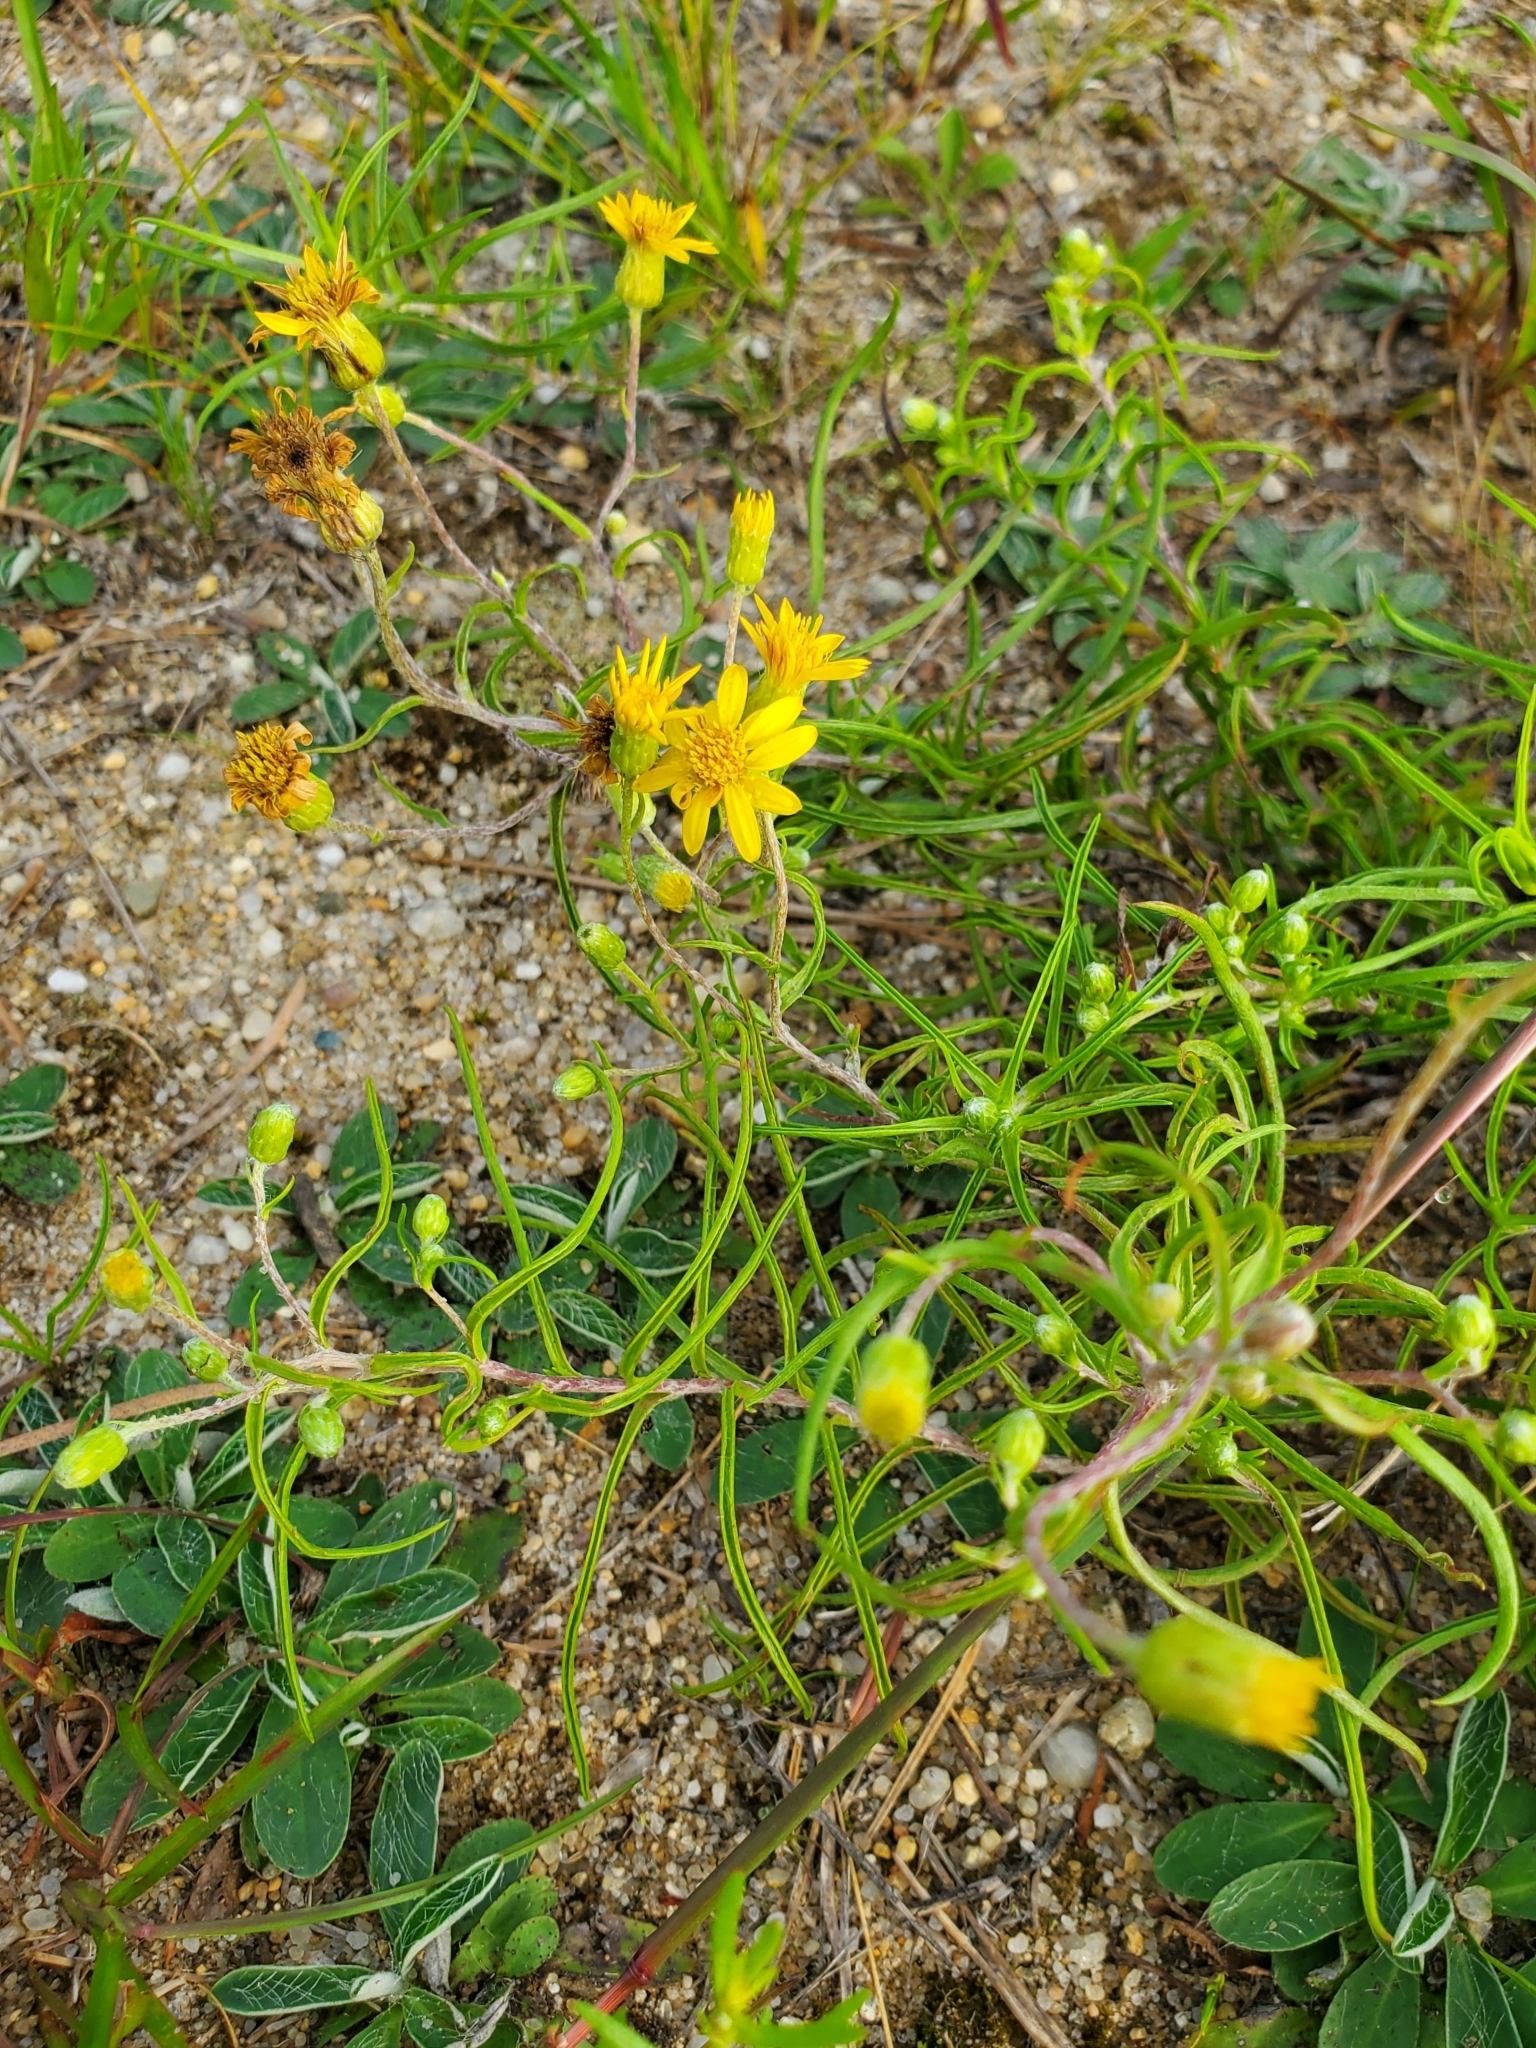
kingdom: Plantae
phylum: Tracheophyta
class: Magnoliopsida
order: Asterales
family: Asteraceae
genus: Pityopsis
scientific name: Pityopsis falcata
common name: Sickle-leaved goldenaster
